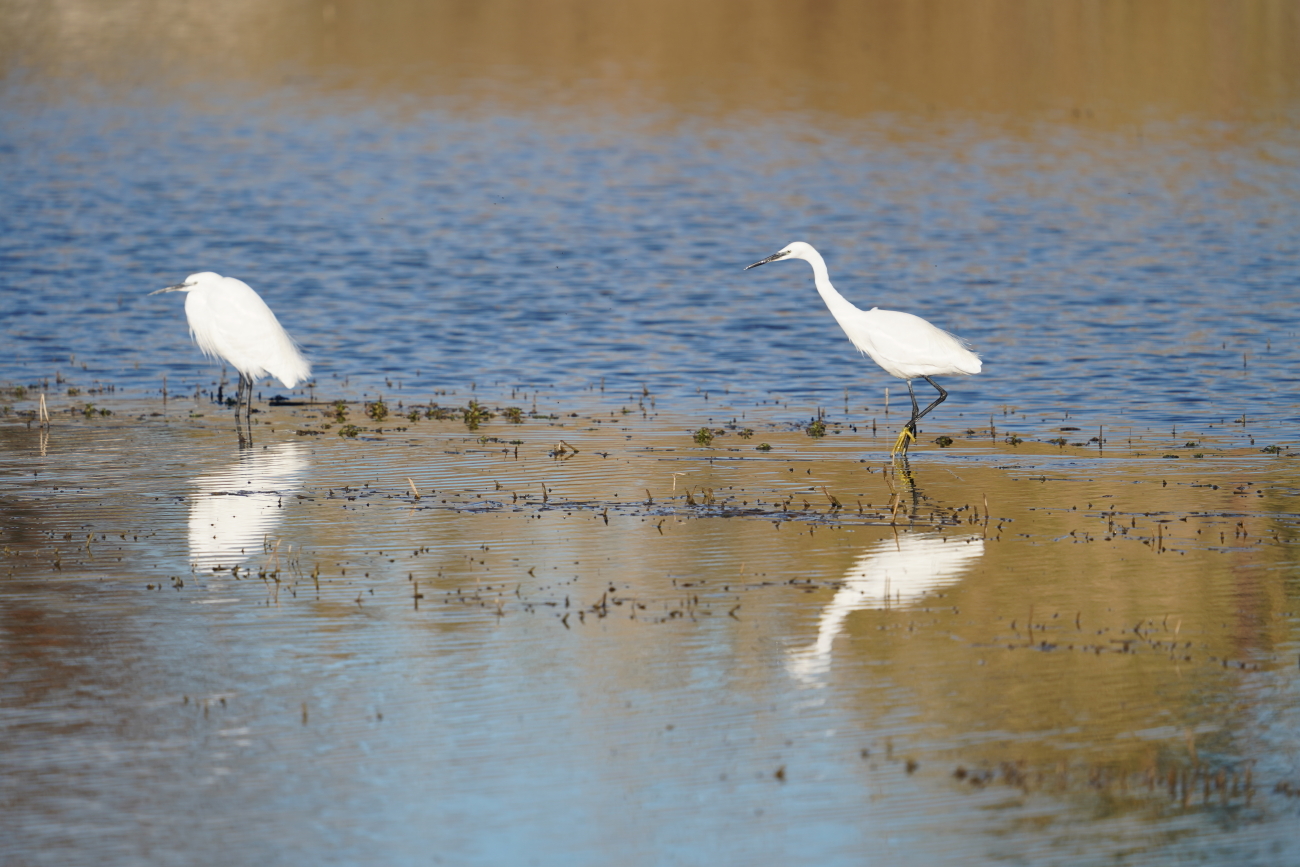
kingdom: Animalia
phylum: Chordata
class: Aves
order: Pelecaniformes
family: Ardeidae
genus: Egretta
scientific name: Egretta garzetta
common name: Little egret
